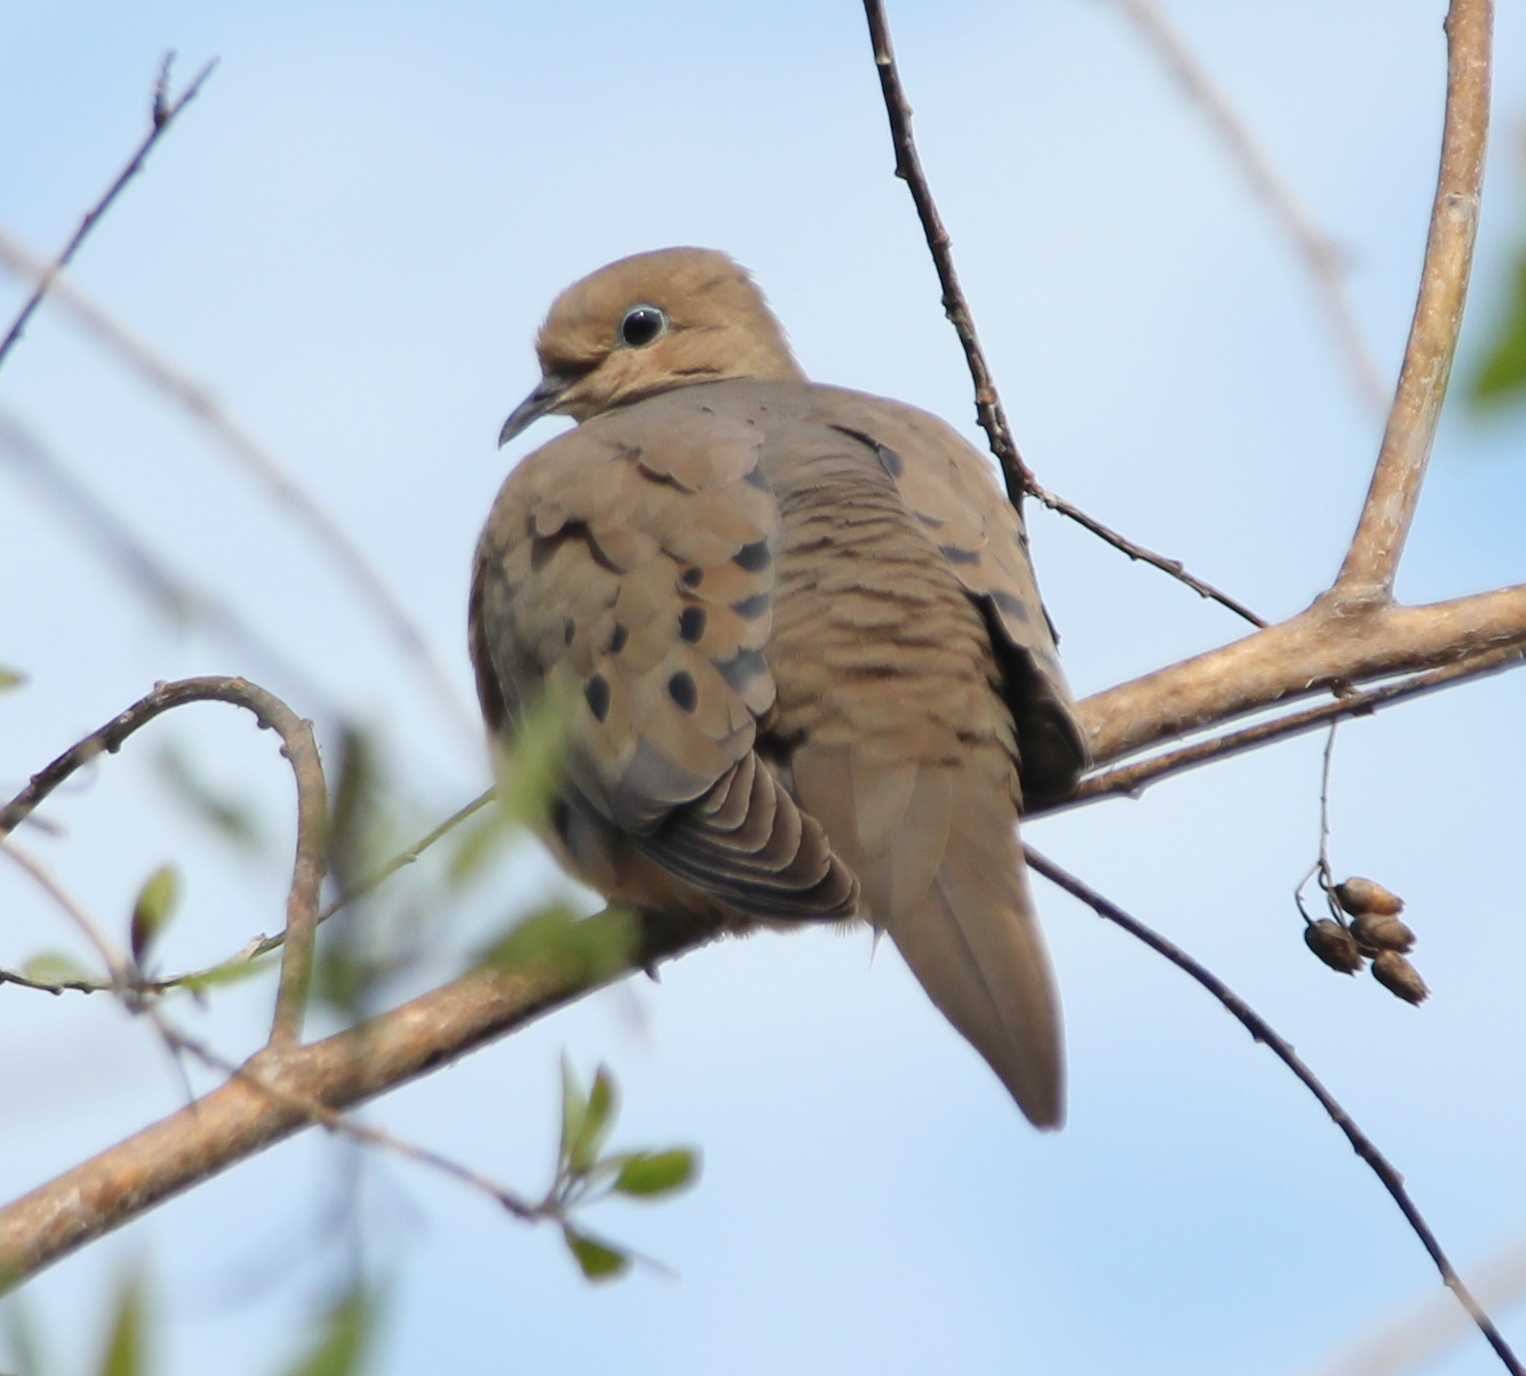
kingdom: Animalia
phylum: Chordata
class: Aves
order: Columbiformes
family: Columbidae
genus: Zenaida
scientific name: Zenaida macroura
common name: Mourning dove
